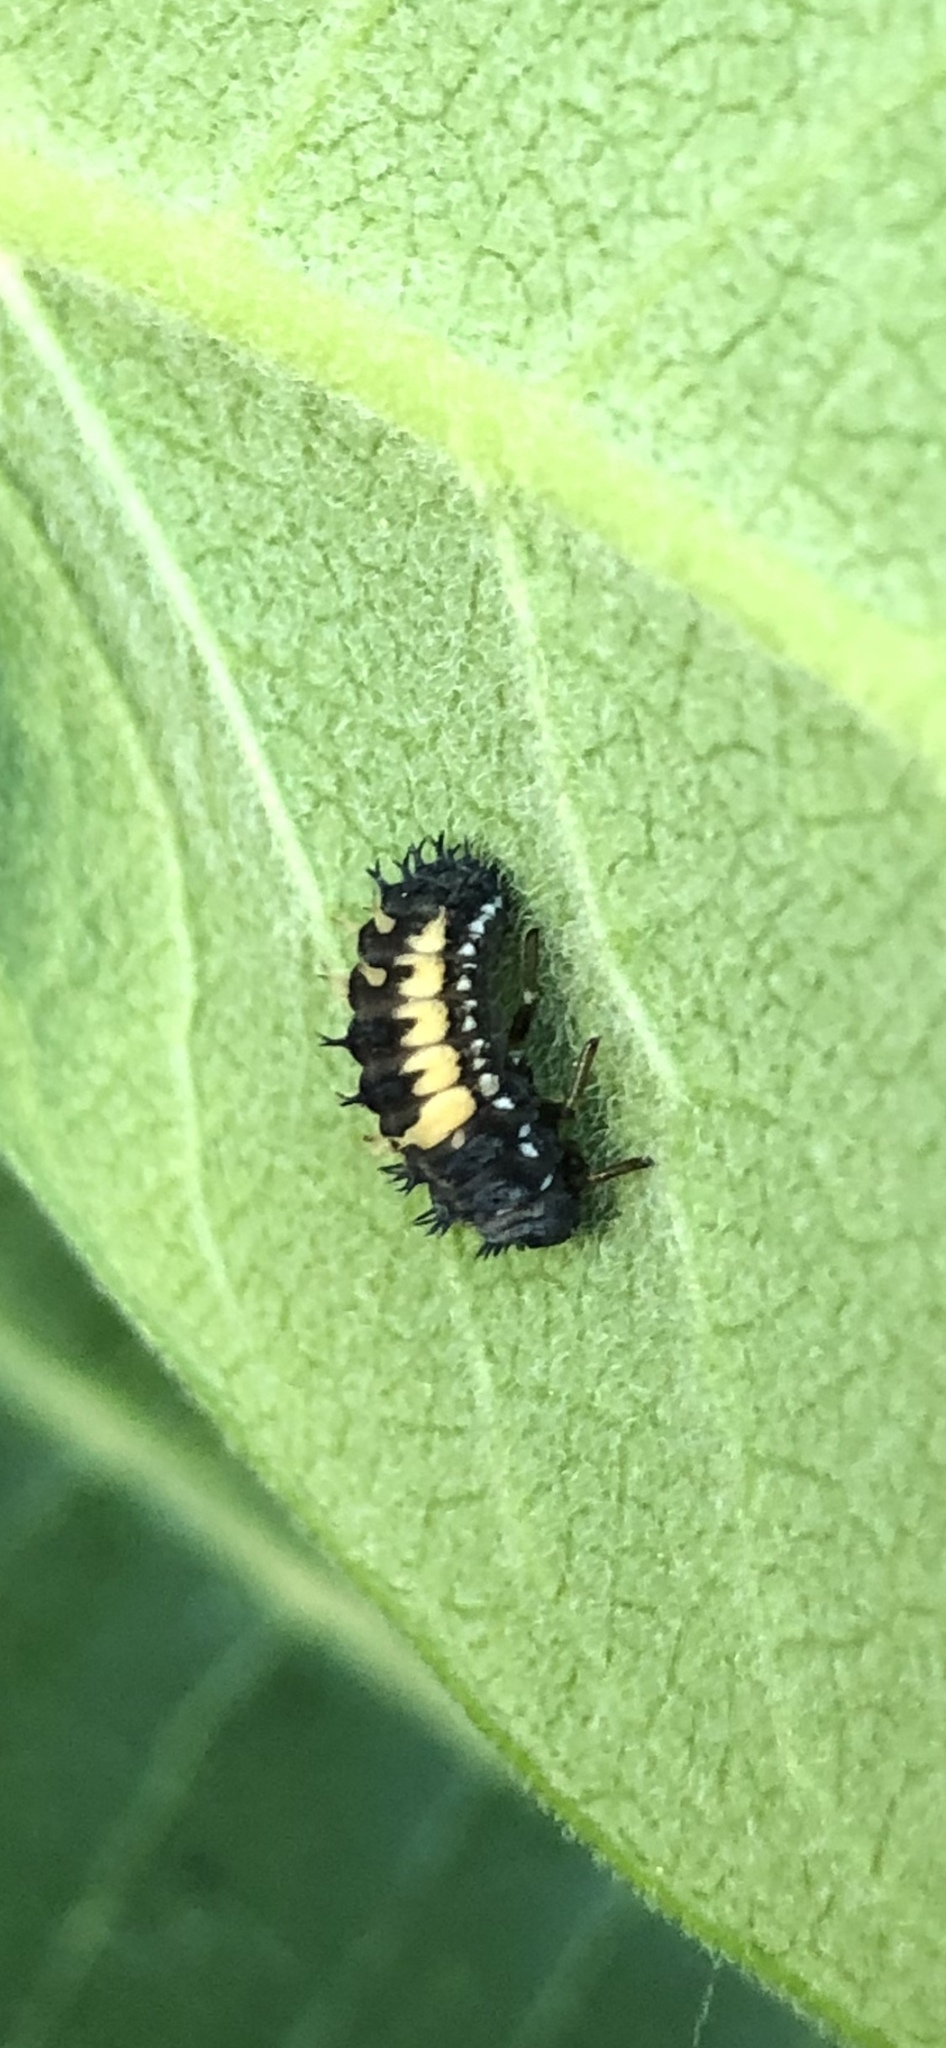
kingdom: Animalia
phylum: Arthropoda
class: Insecta
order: Coleoptera
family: Coccinellidae
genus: Harmonia
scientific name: Harmonia axyridis
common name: Harlequin ladybird
